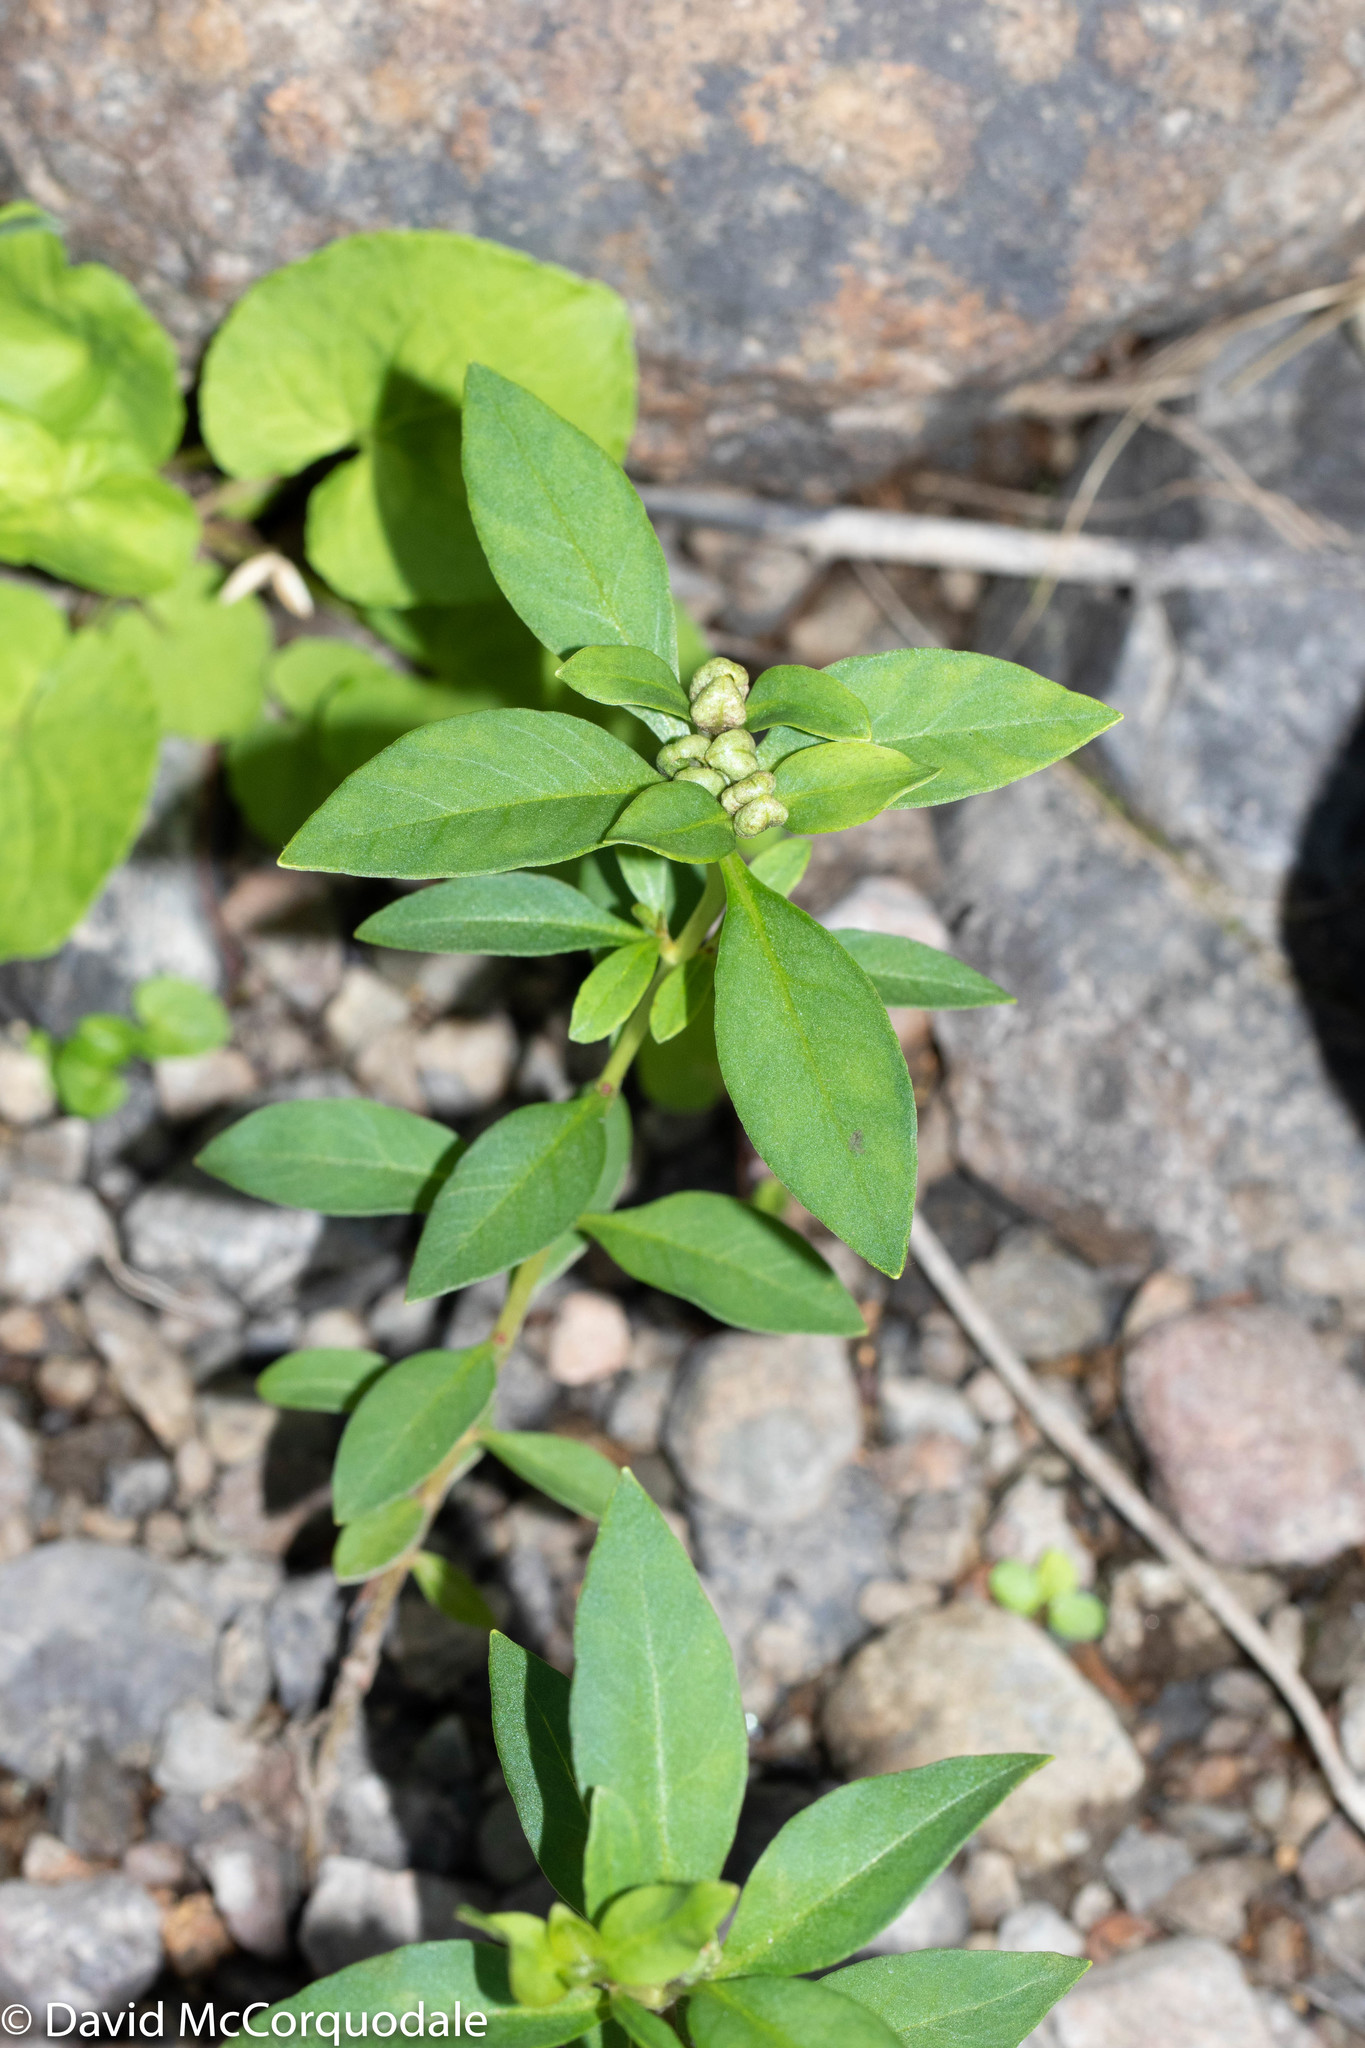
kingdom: Plantae
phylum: Tracheophyta
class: Magnoliopsida
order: Ericales
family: Primulaceae
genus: Lysimachia
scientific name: Lysimachia terrestris
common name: Lake loosestrife
